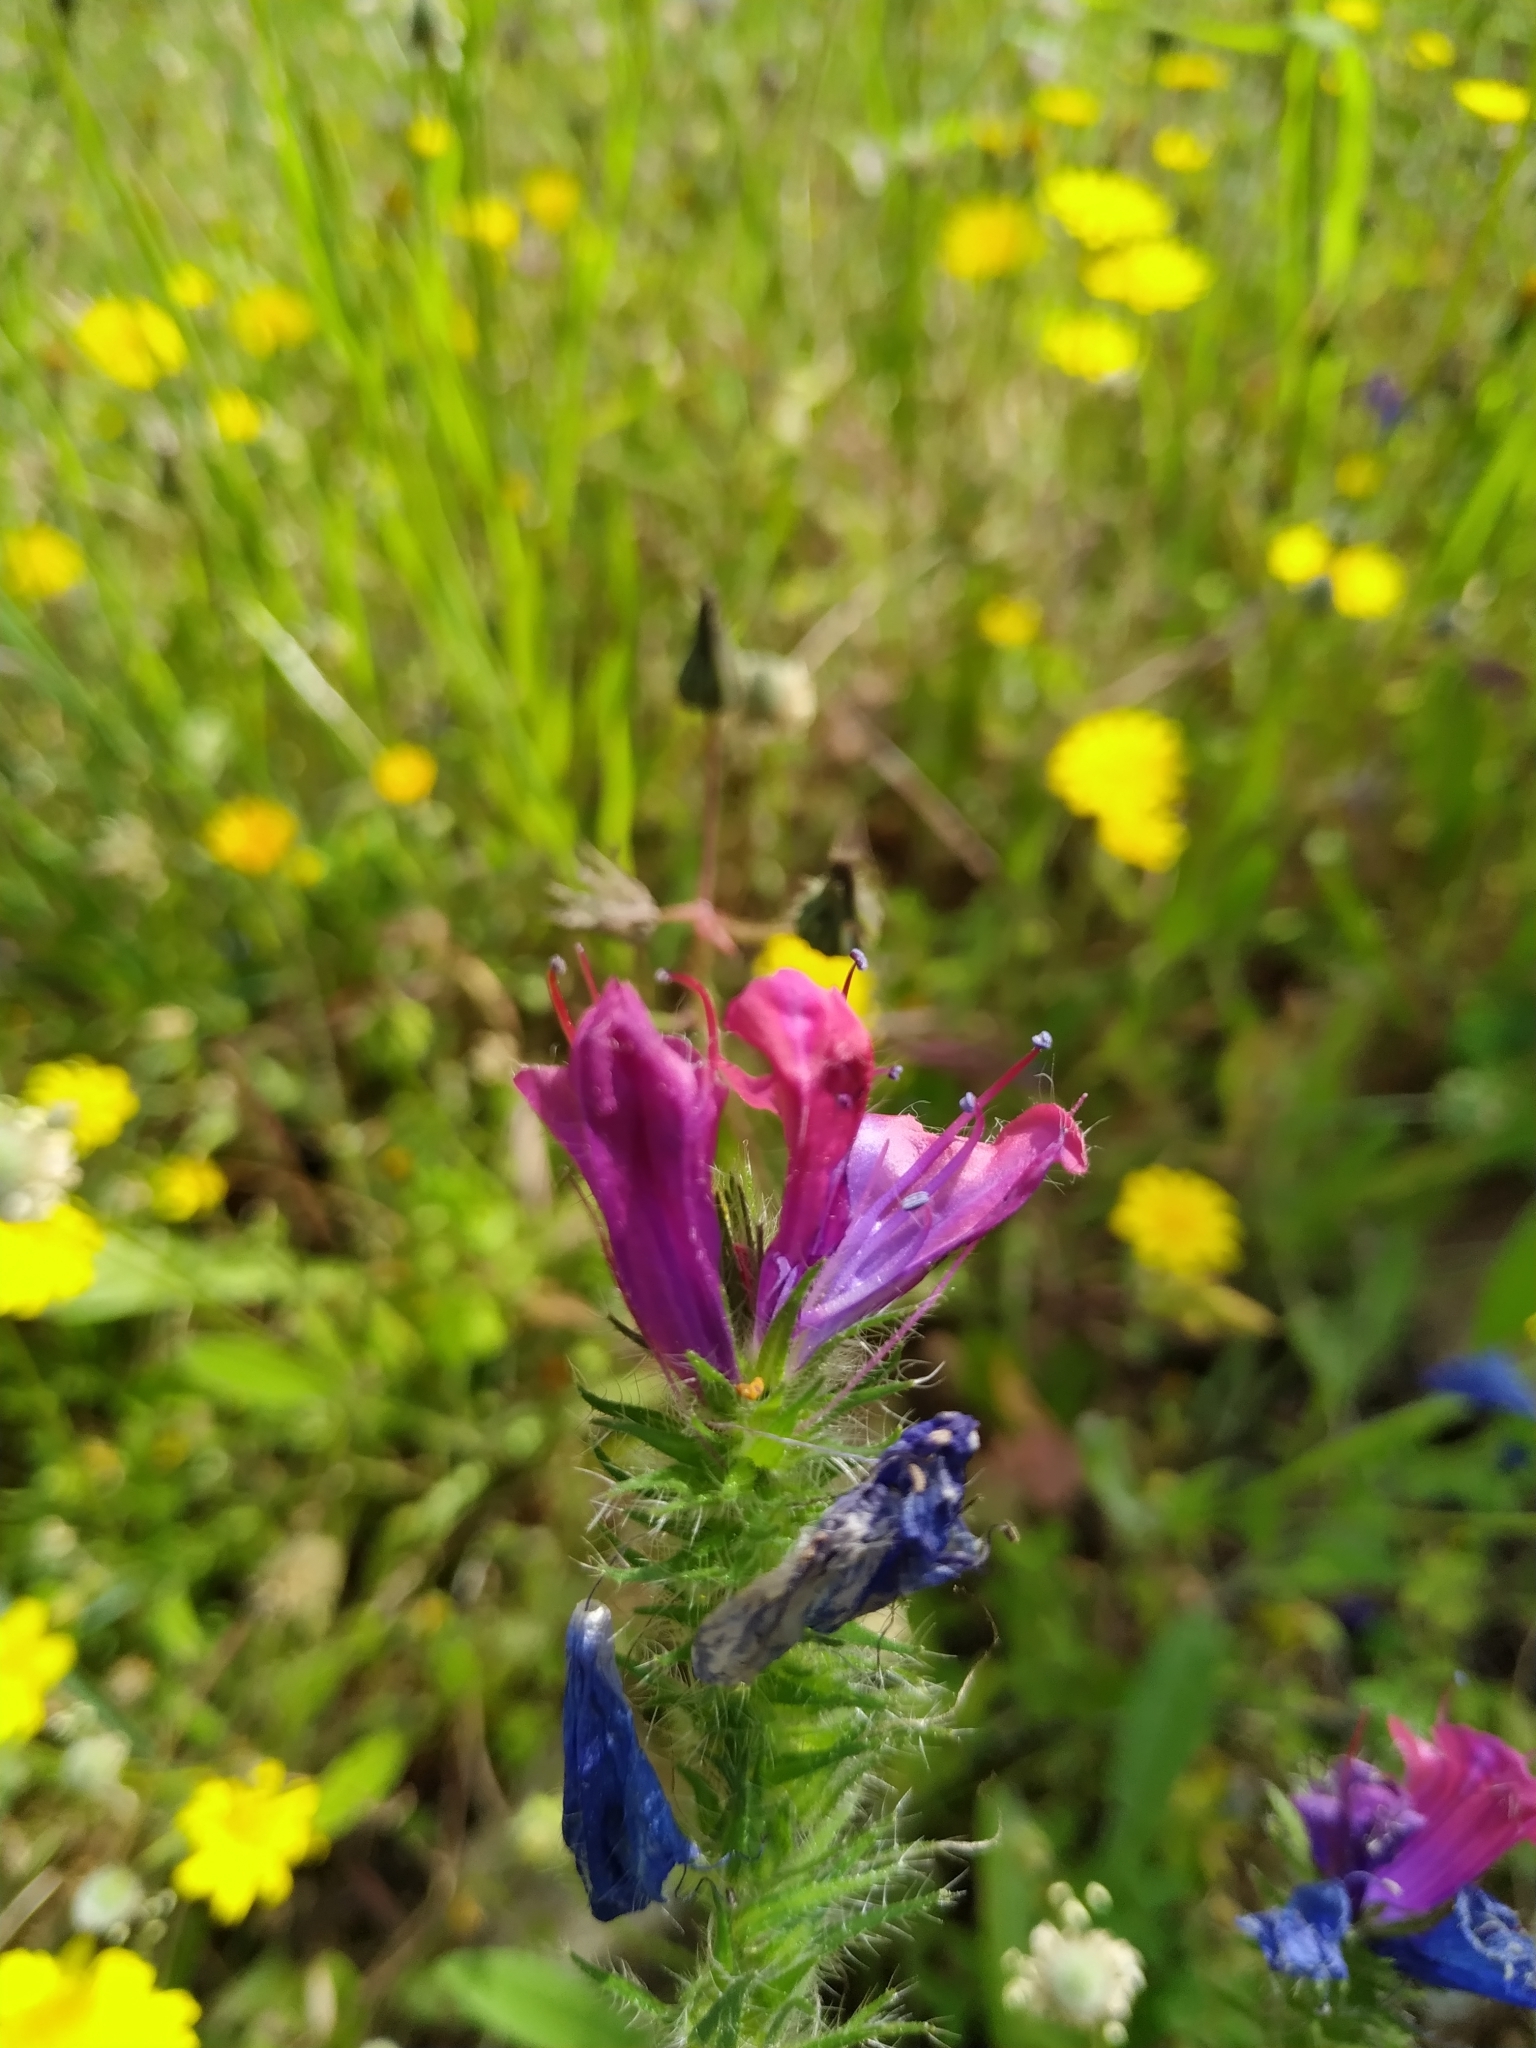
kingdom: Plantae
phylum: Tracheophyta
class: Magnoliopsida
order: Boraginales
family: Boraginaceae
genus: Echium
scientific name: Echium plantagineum
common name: Purple viper's-bugloss
